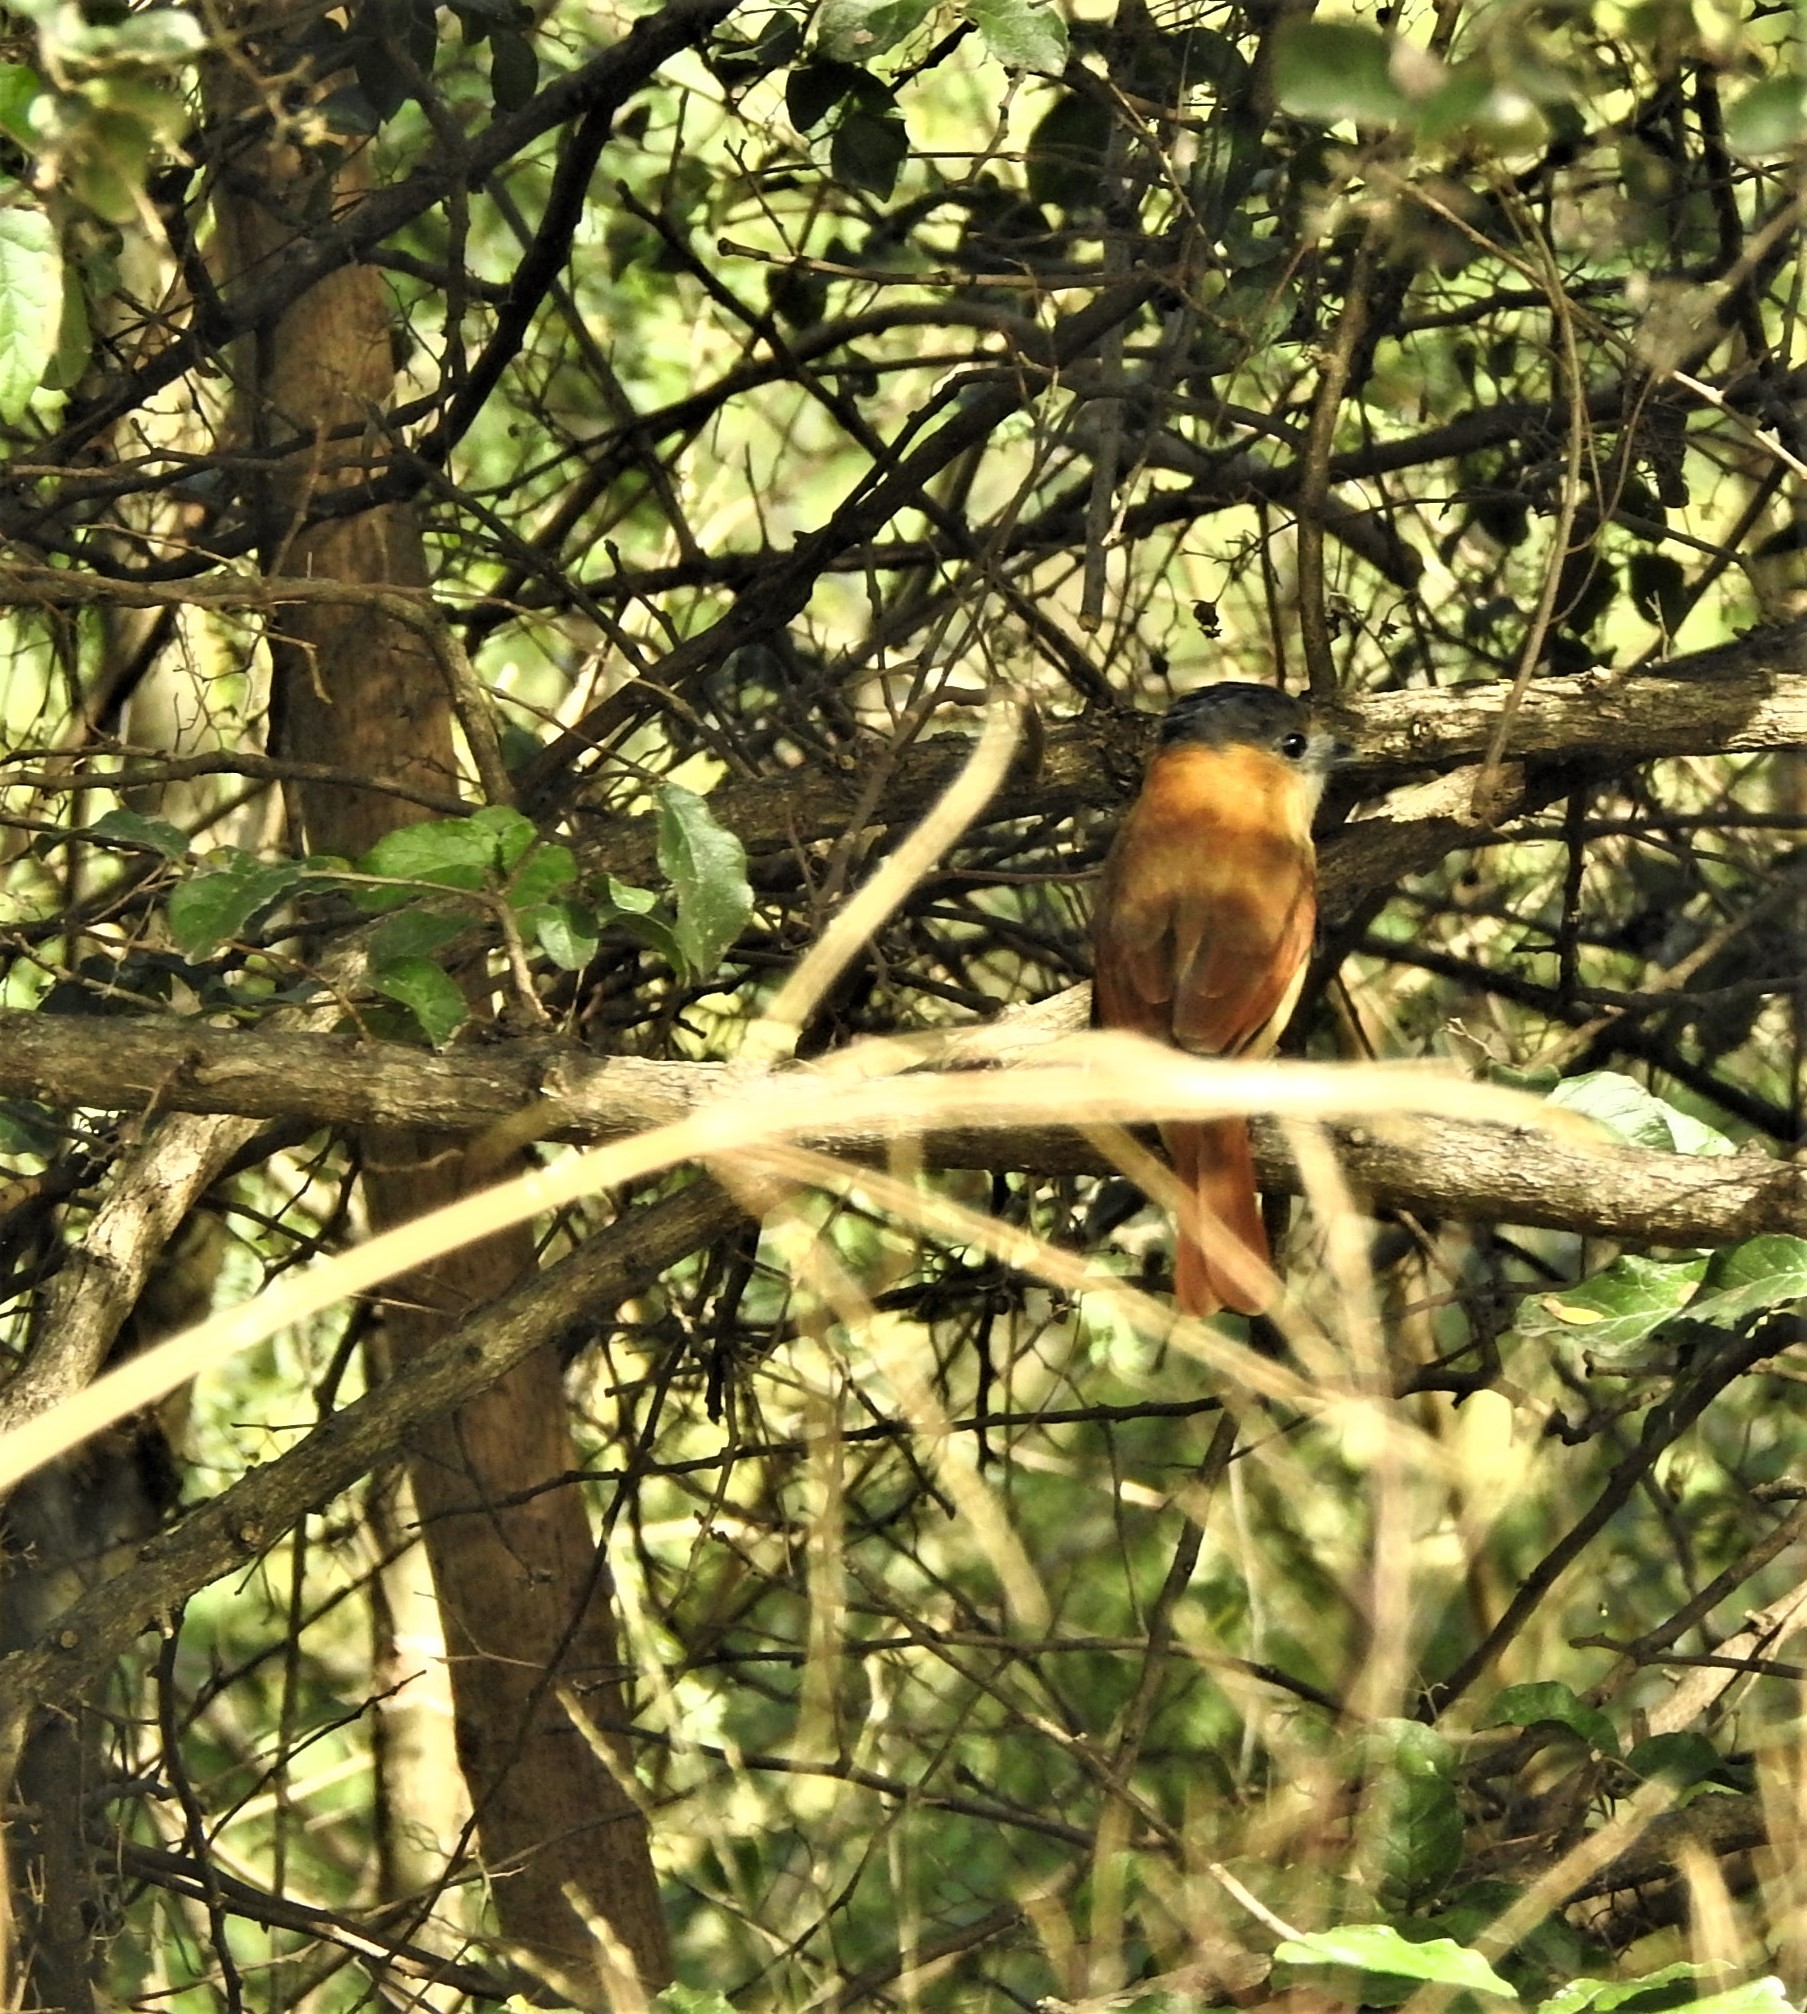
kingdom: Animalia
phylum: Chordata
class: Aves
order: Passeriformes
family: Cotingidae
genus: Pachyramphus
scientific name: Pachyramphus aglaiae
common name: Rose-throated becard
